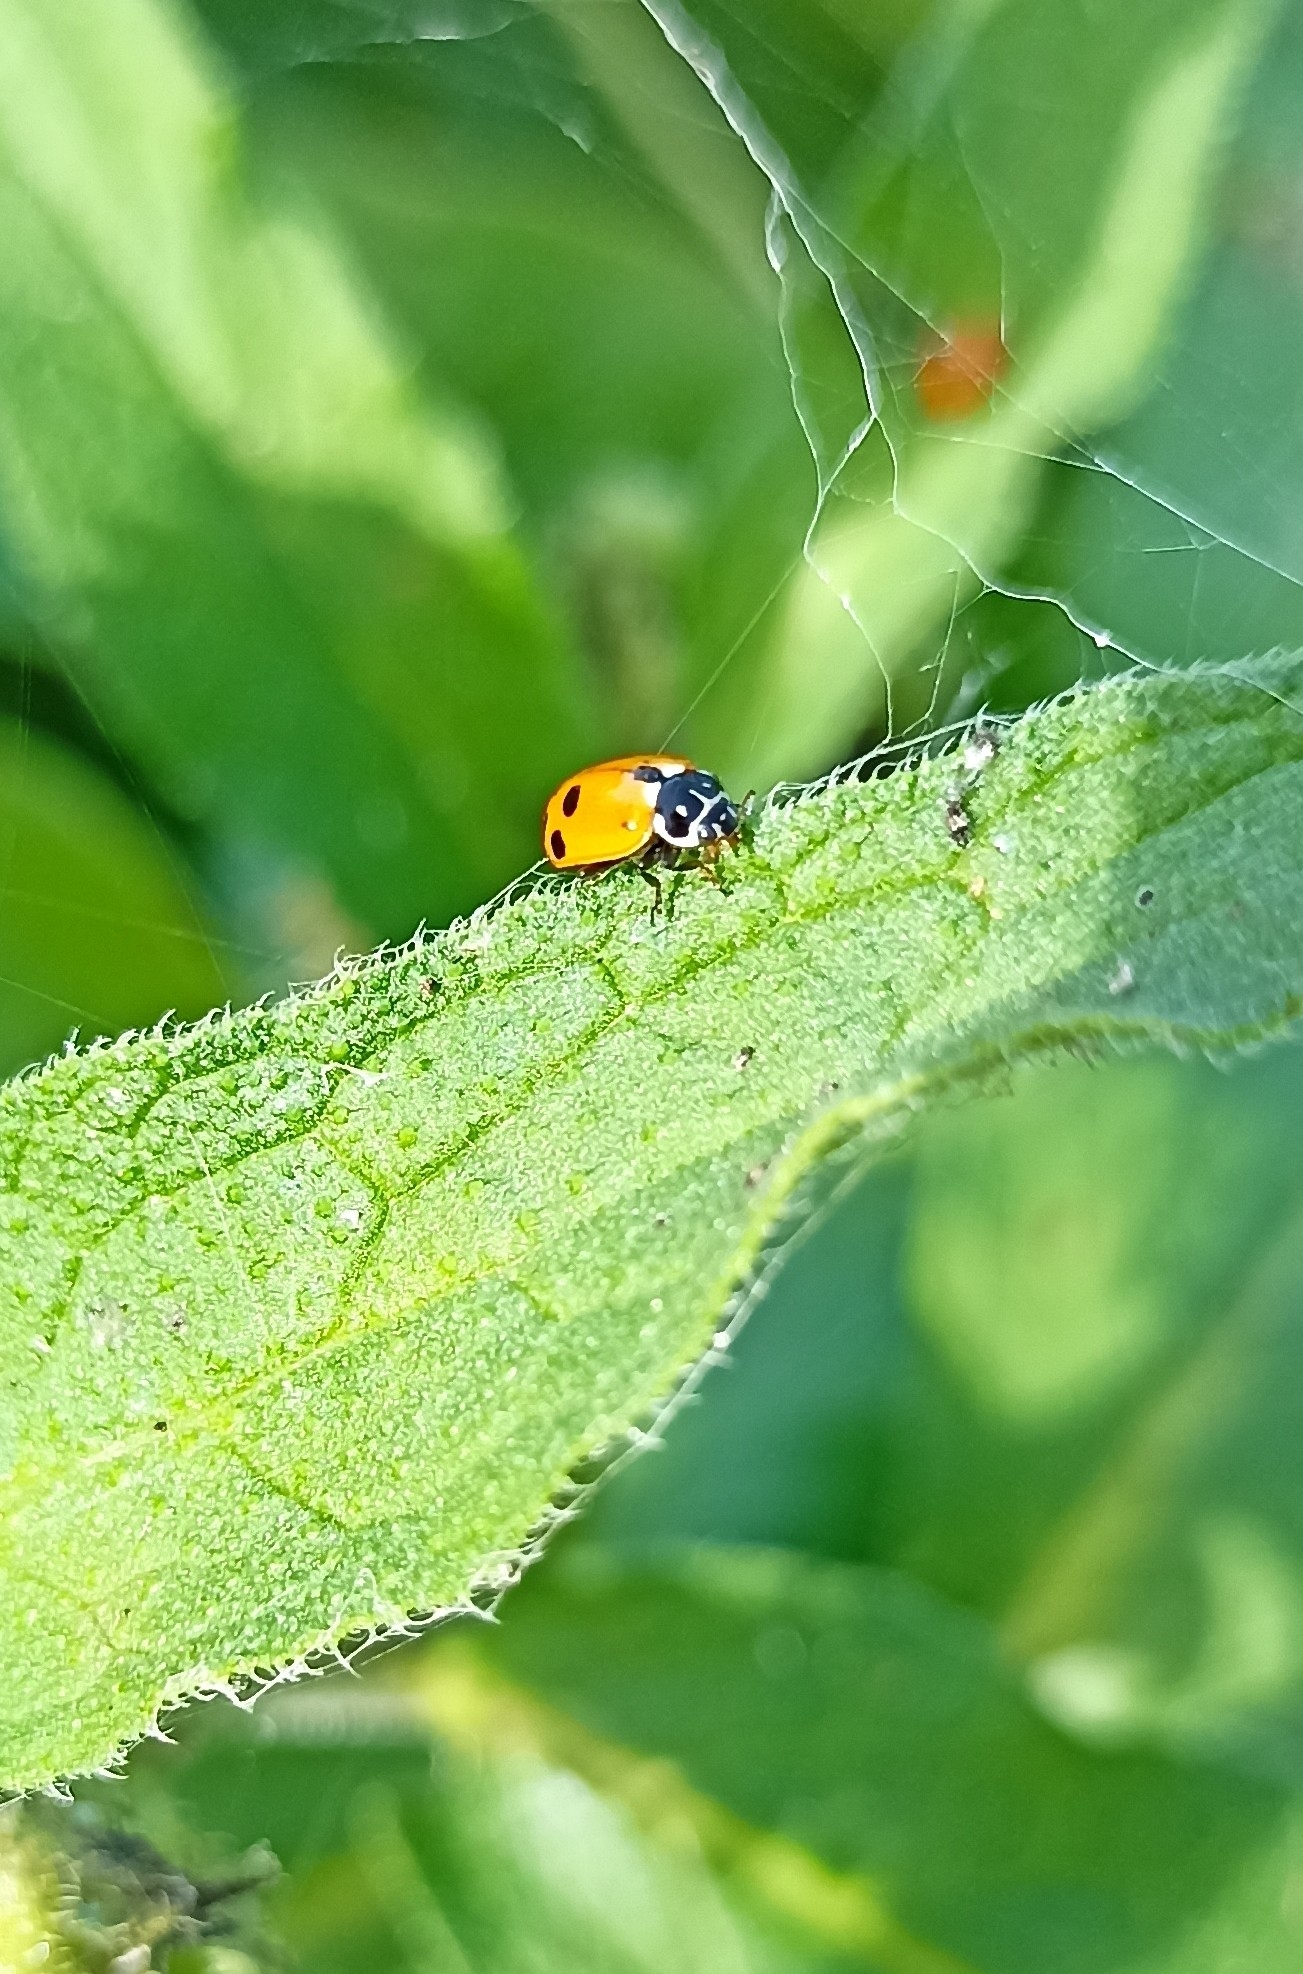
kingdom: Animalia
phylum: Arthropoda
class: Insecta
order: Coleoptera
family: Coccinellidae
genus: Hippodamia
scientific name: Hippodamia variegata
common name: Ladybird beetle
